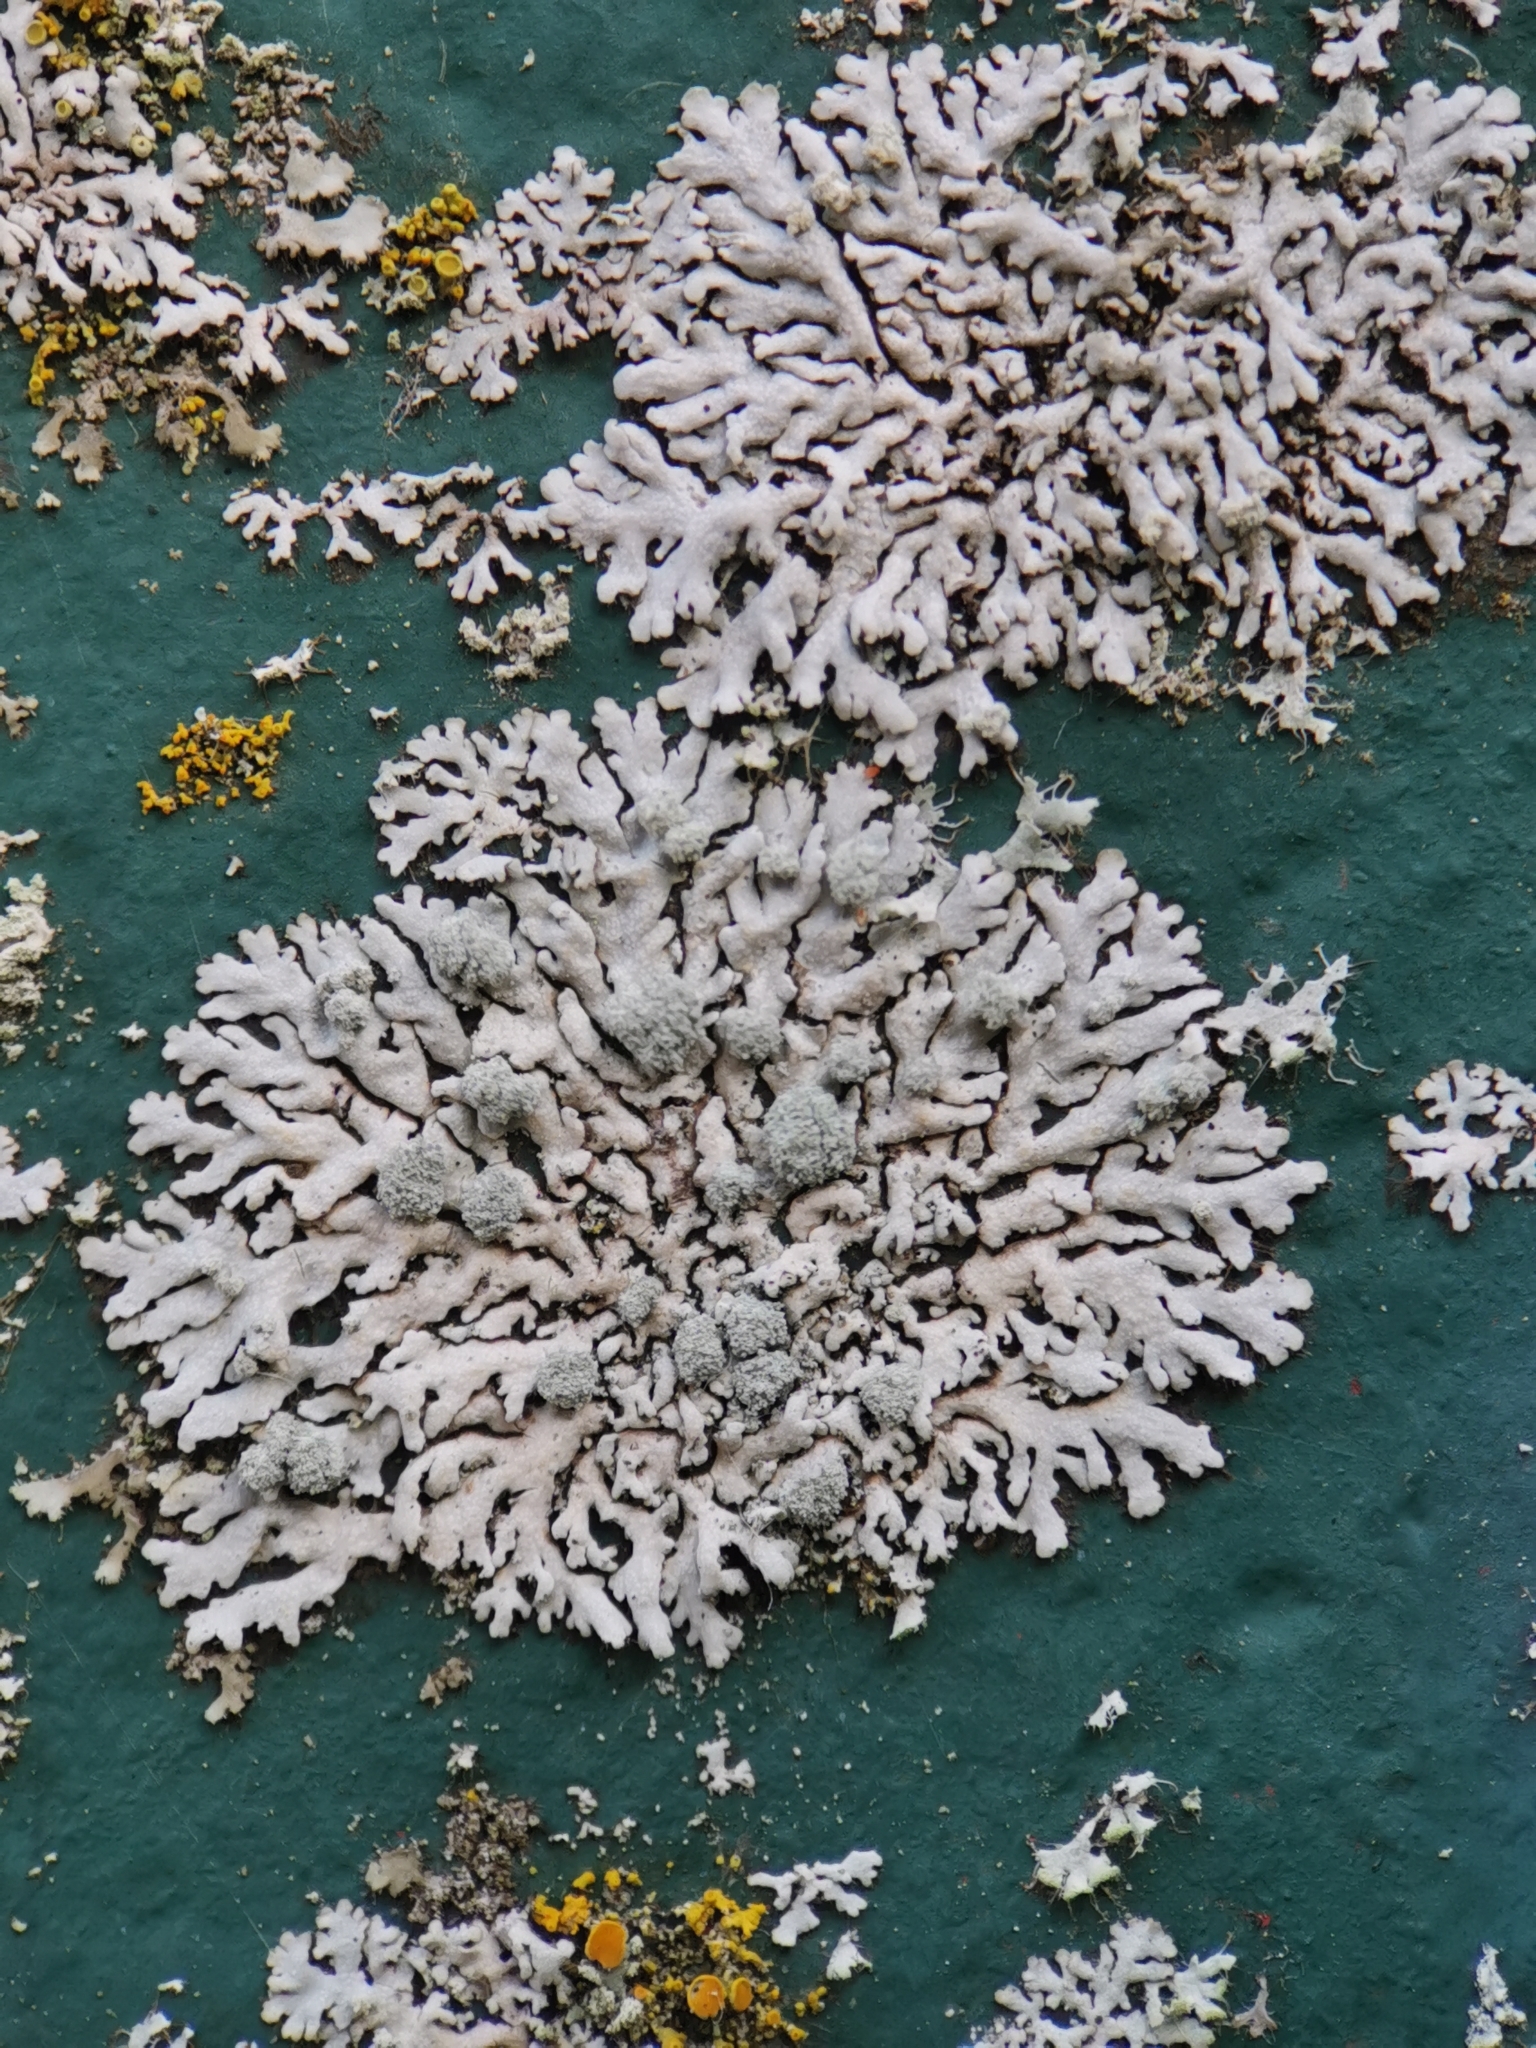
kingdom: Fungi
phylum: Ascomycota
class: Lecanoromycetes
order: Caliciales
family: Physciaceae
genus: Physcia
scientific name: Physcia caesia
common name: Blue-gray rosette lichen
